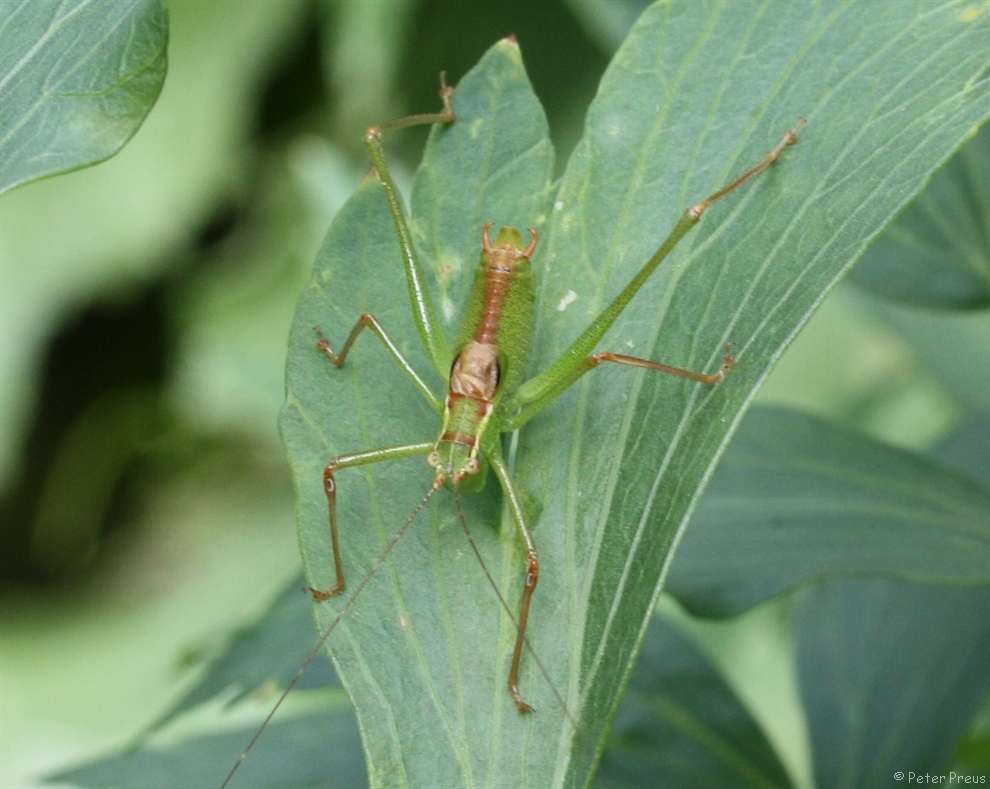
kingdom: Animalia
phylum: Arthropoda
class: Insecta
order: Orthoptera
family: Tettigoniidae
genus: Leptophyes
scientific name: Leptophyes punctatissima
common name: Speckled bush-cricket
